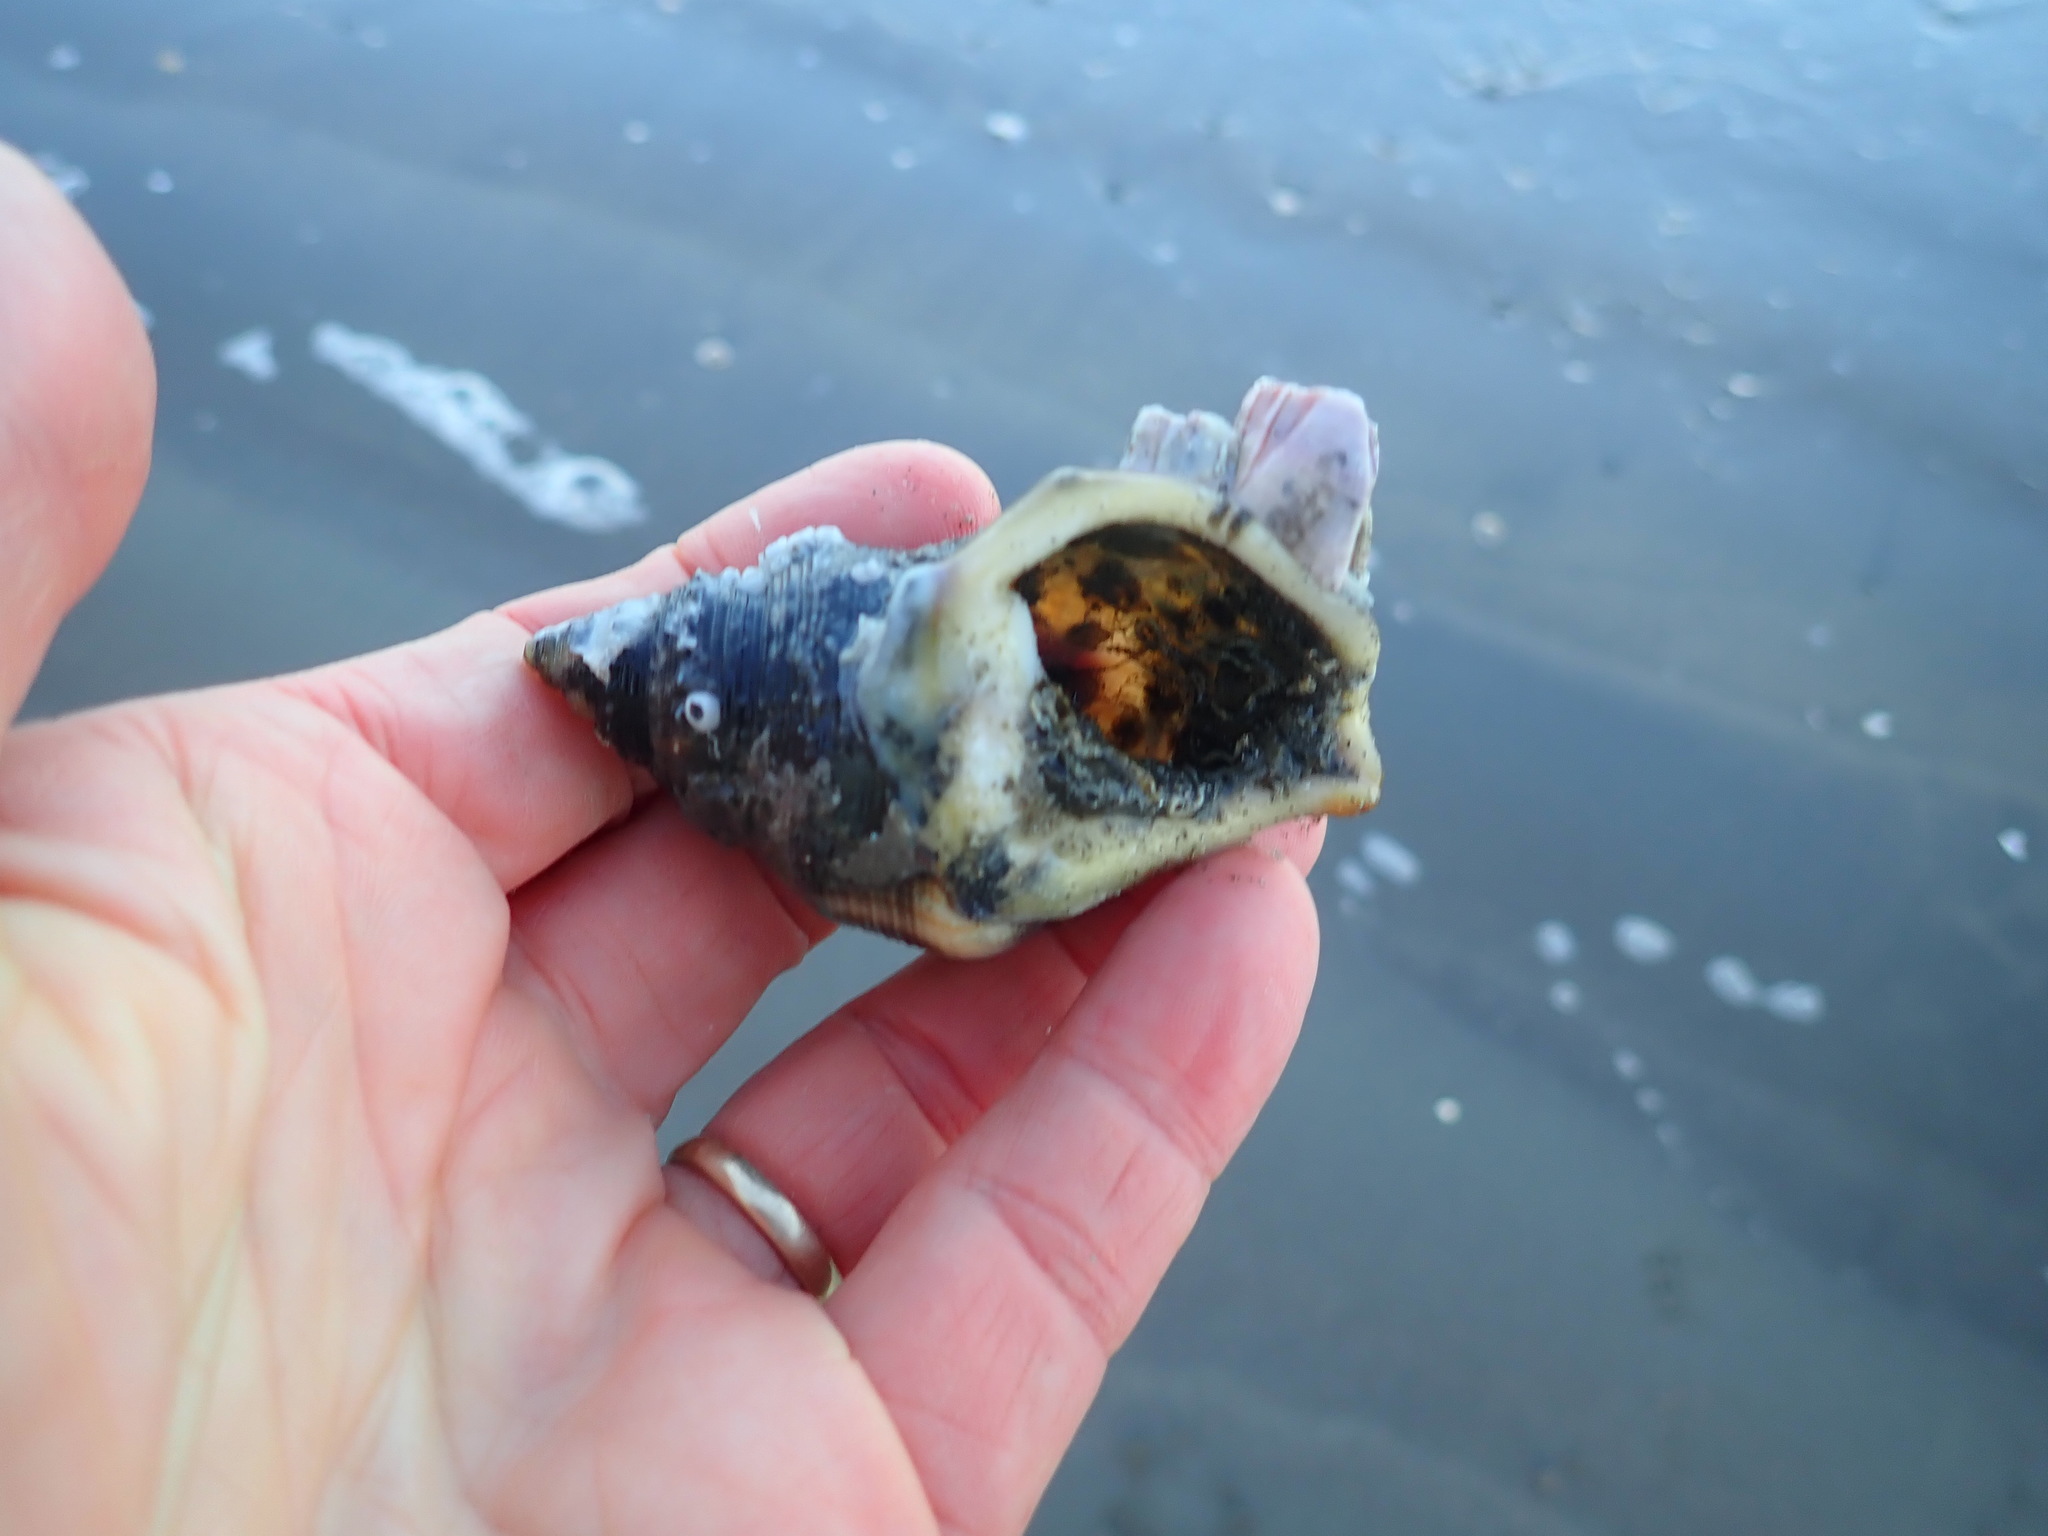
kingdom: Animalia
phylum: Mollusca
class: Gastropoda
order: Littorinimorpha
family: Struthiolariidae
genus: Struthiolaria
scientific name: Struthiolaria papulosa
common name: Large ostrich foot
